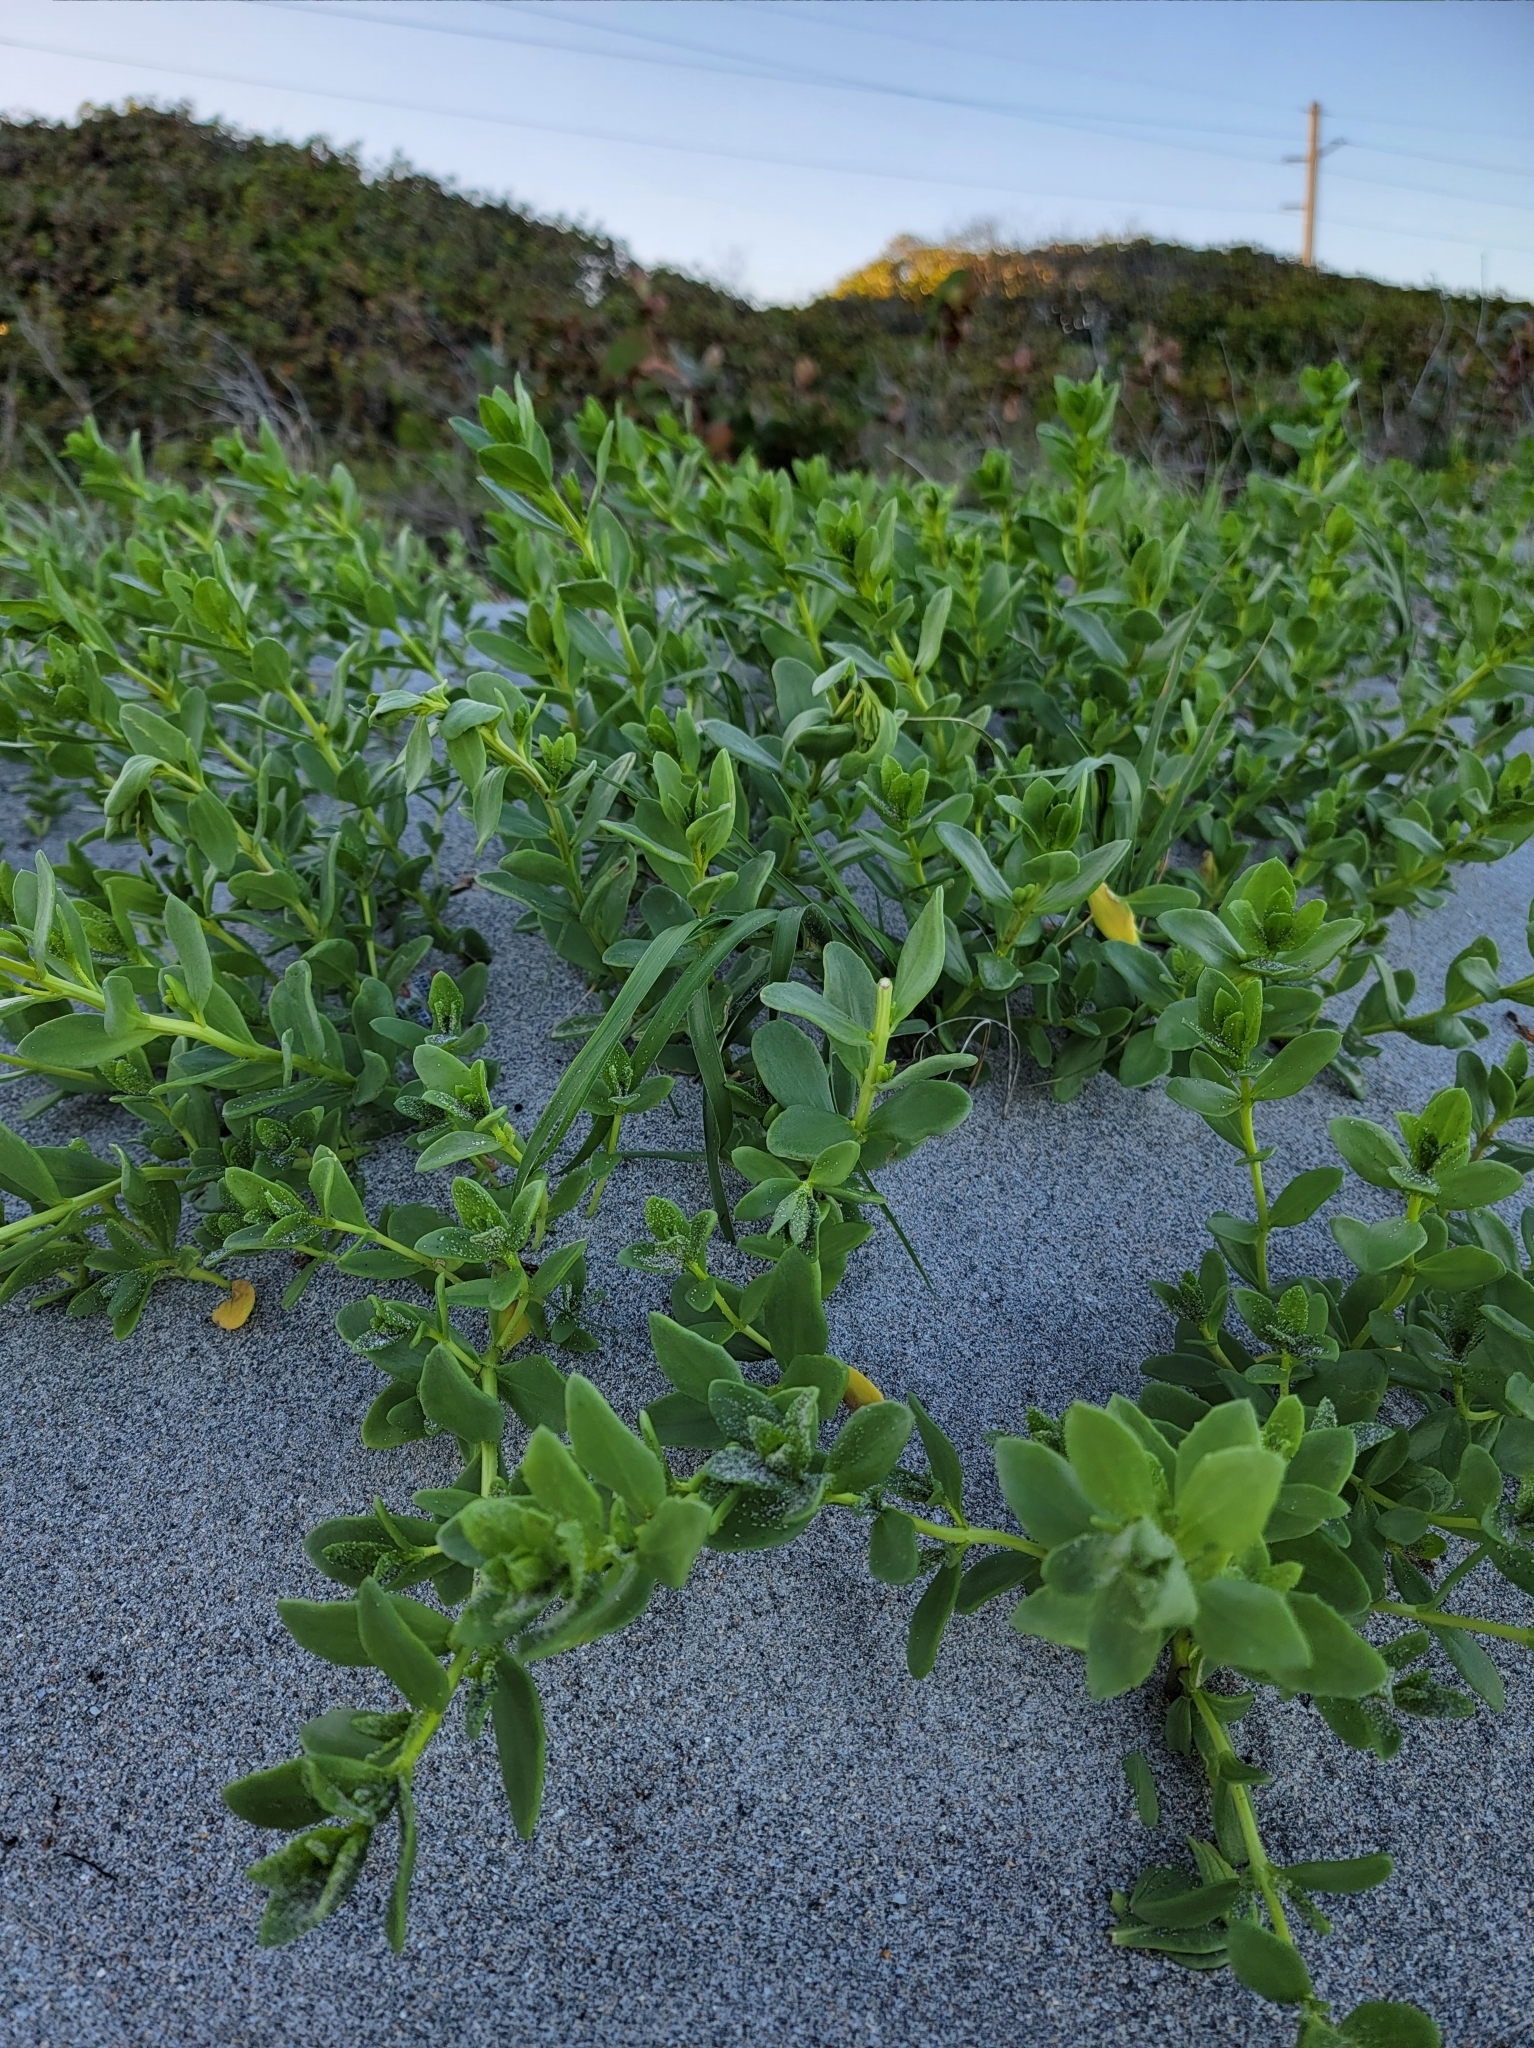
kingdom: Plantae
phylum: Tracheophyta
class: Magnoliopsida
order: Asterales
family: Asteraceae
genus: Iva
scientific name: Iva imbricata
